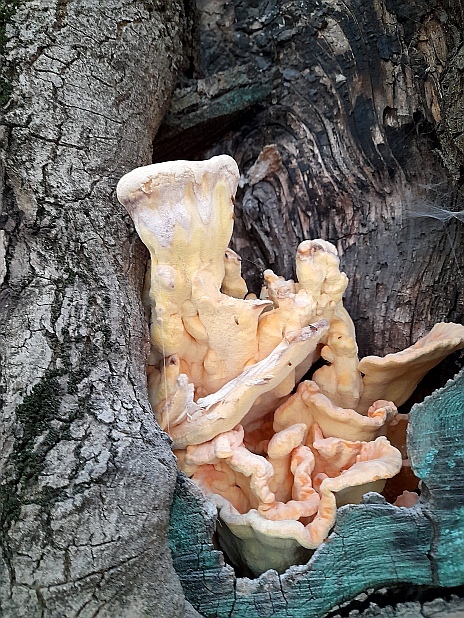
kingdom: Fungi
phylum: Basidiomycota
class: Agaricomycetes
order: Polyporales
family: Laetiporaceae
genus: Laetiporus
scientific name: Laetiporus sulphureus
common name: Chicken of the woods
